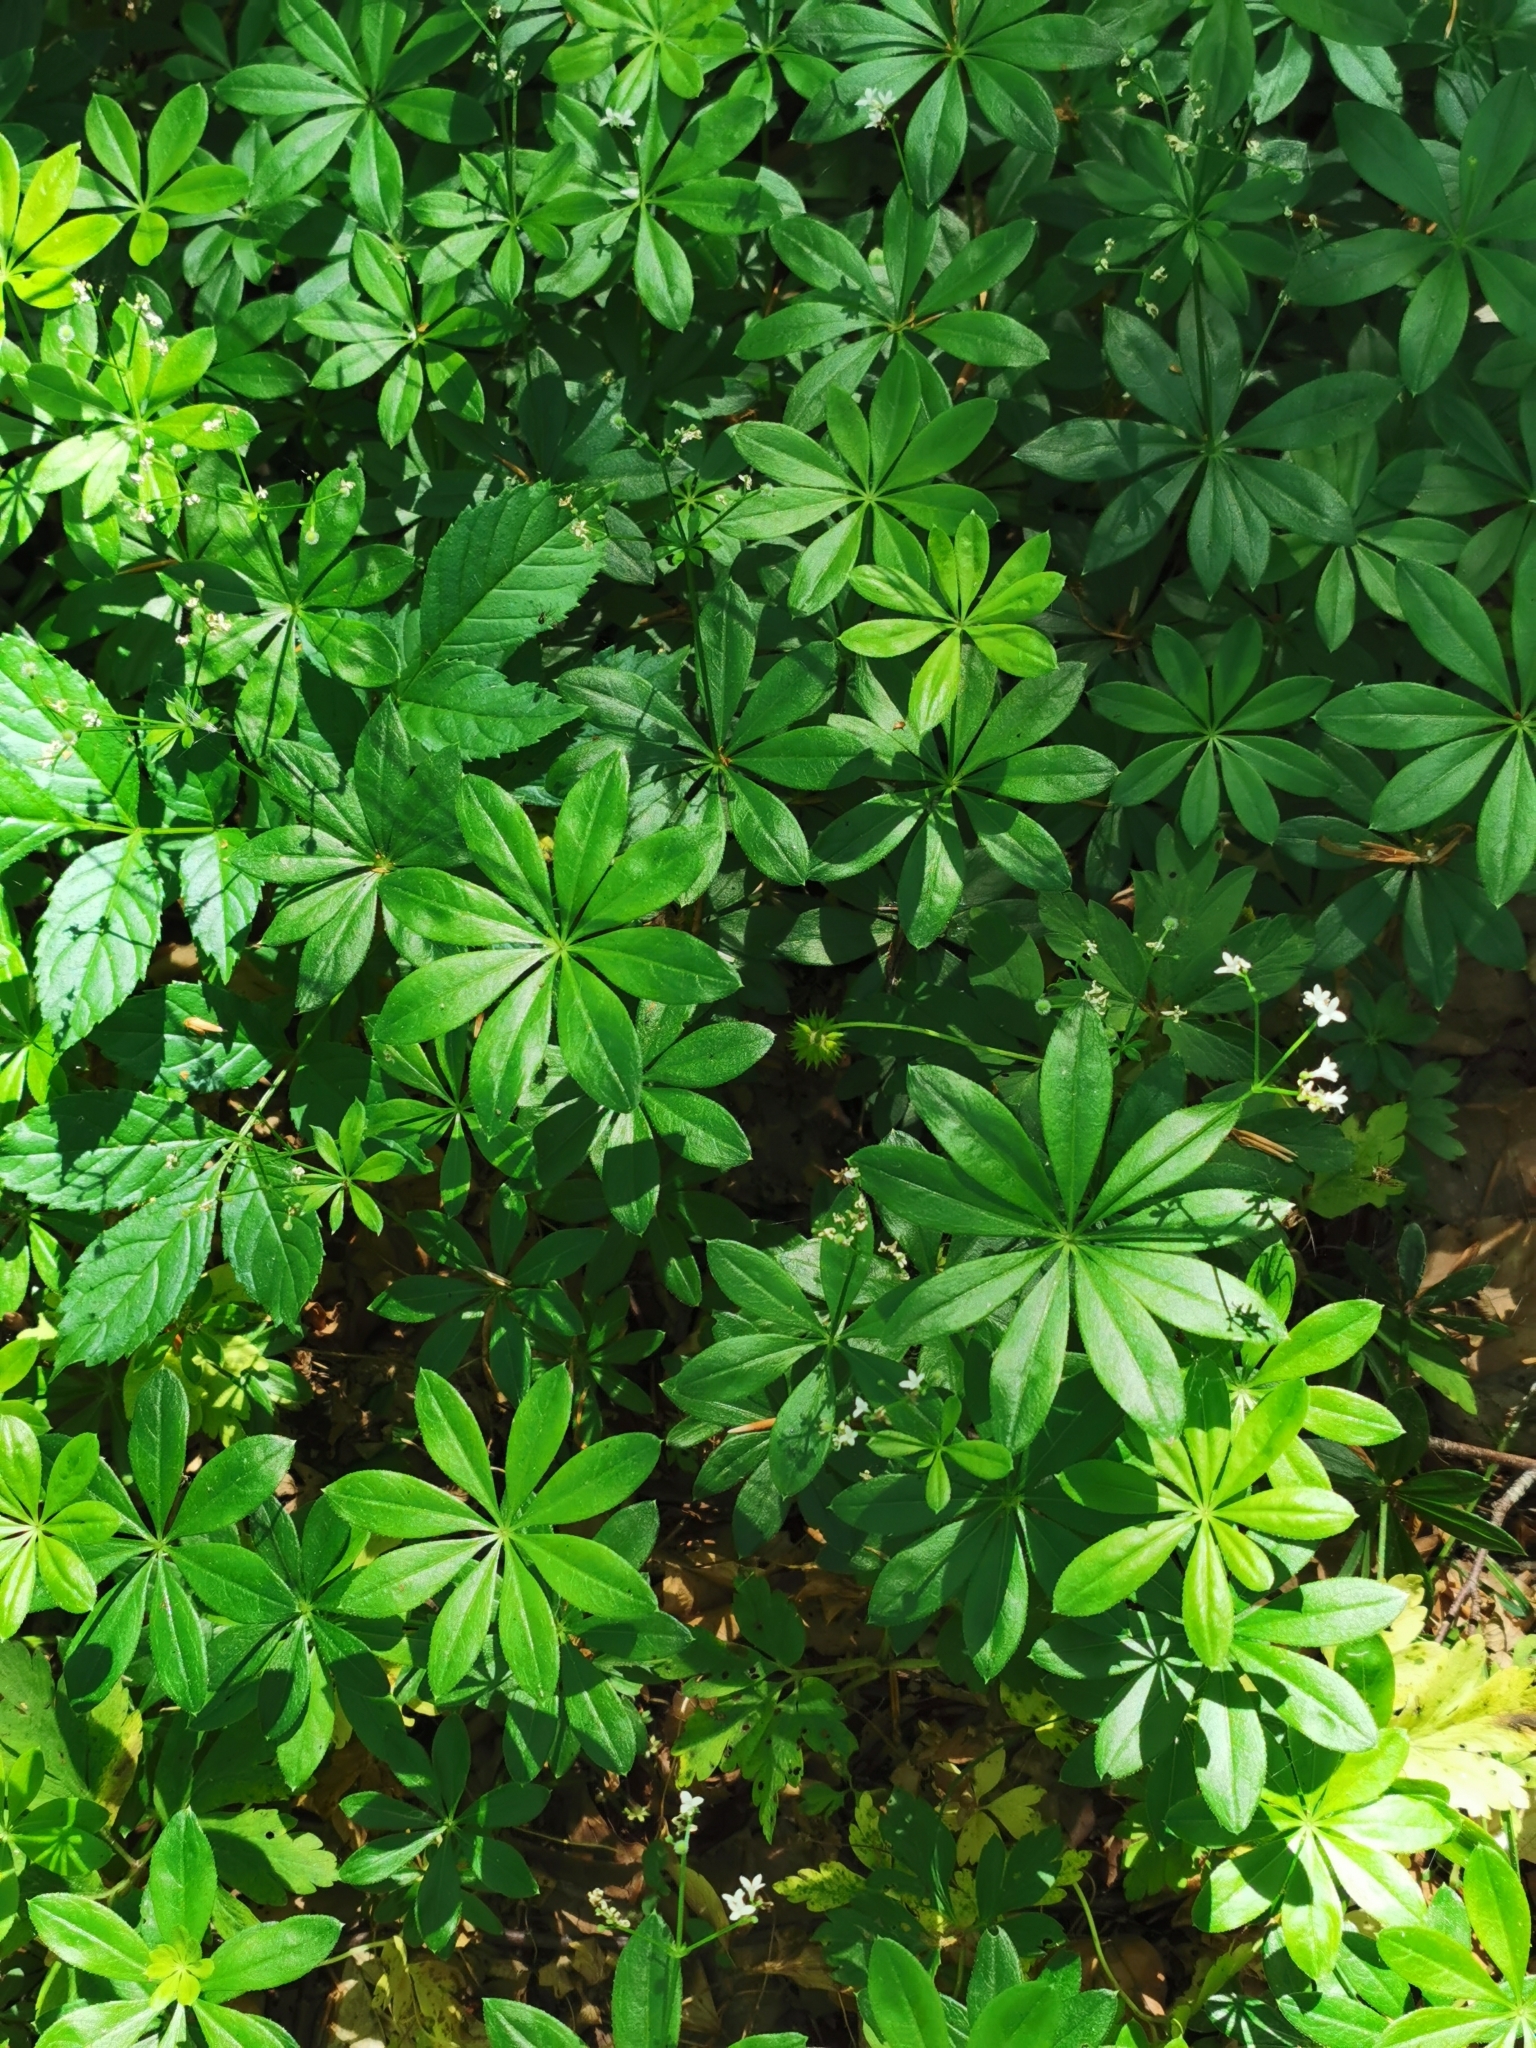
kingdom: Plantae
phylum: Tracheophyta
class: Magnoliopsida
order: Gentianales
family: Rubiaceae
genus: Galium
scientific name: Galium odoratum
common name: Sweet woodruff
